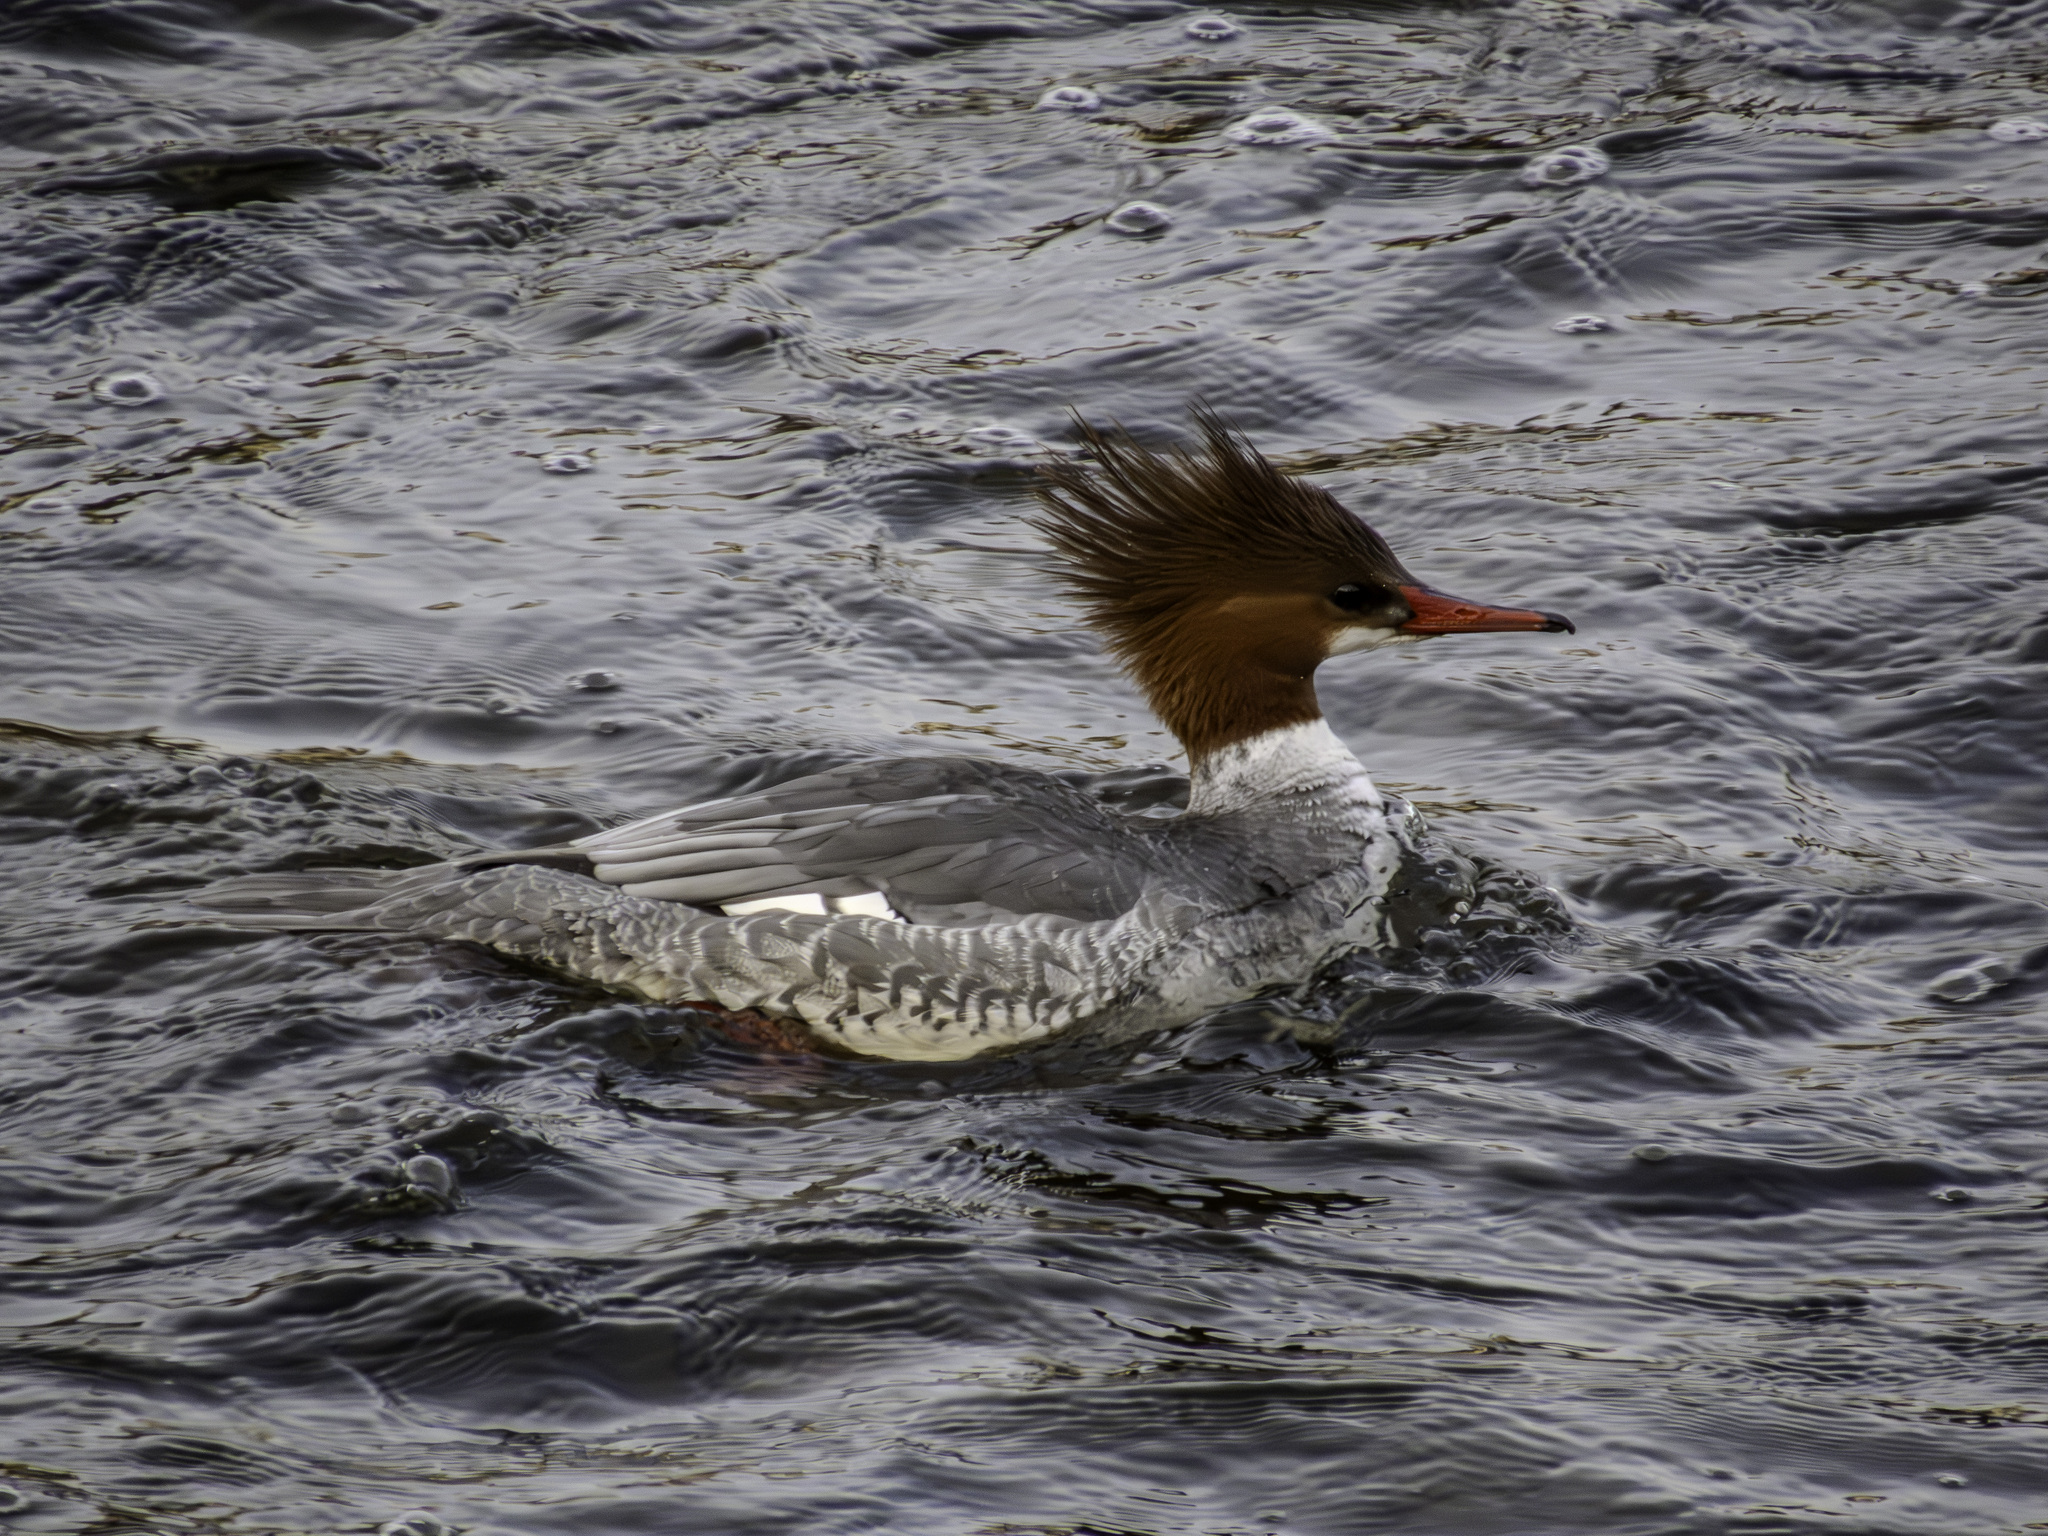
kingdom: Animalia
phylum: Chordata
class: Aves
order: Anseriformes
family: Anatidae
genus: Mergus
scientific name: Mergus merganser
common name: Common merganser
